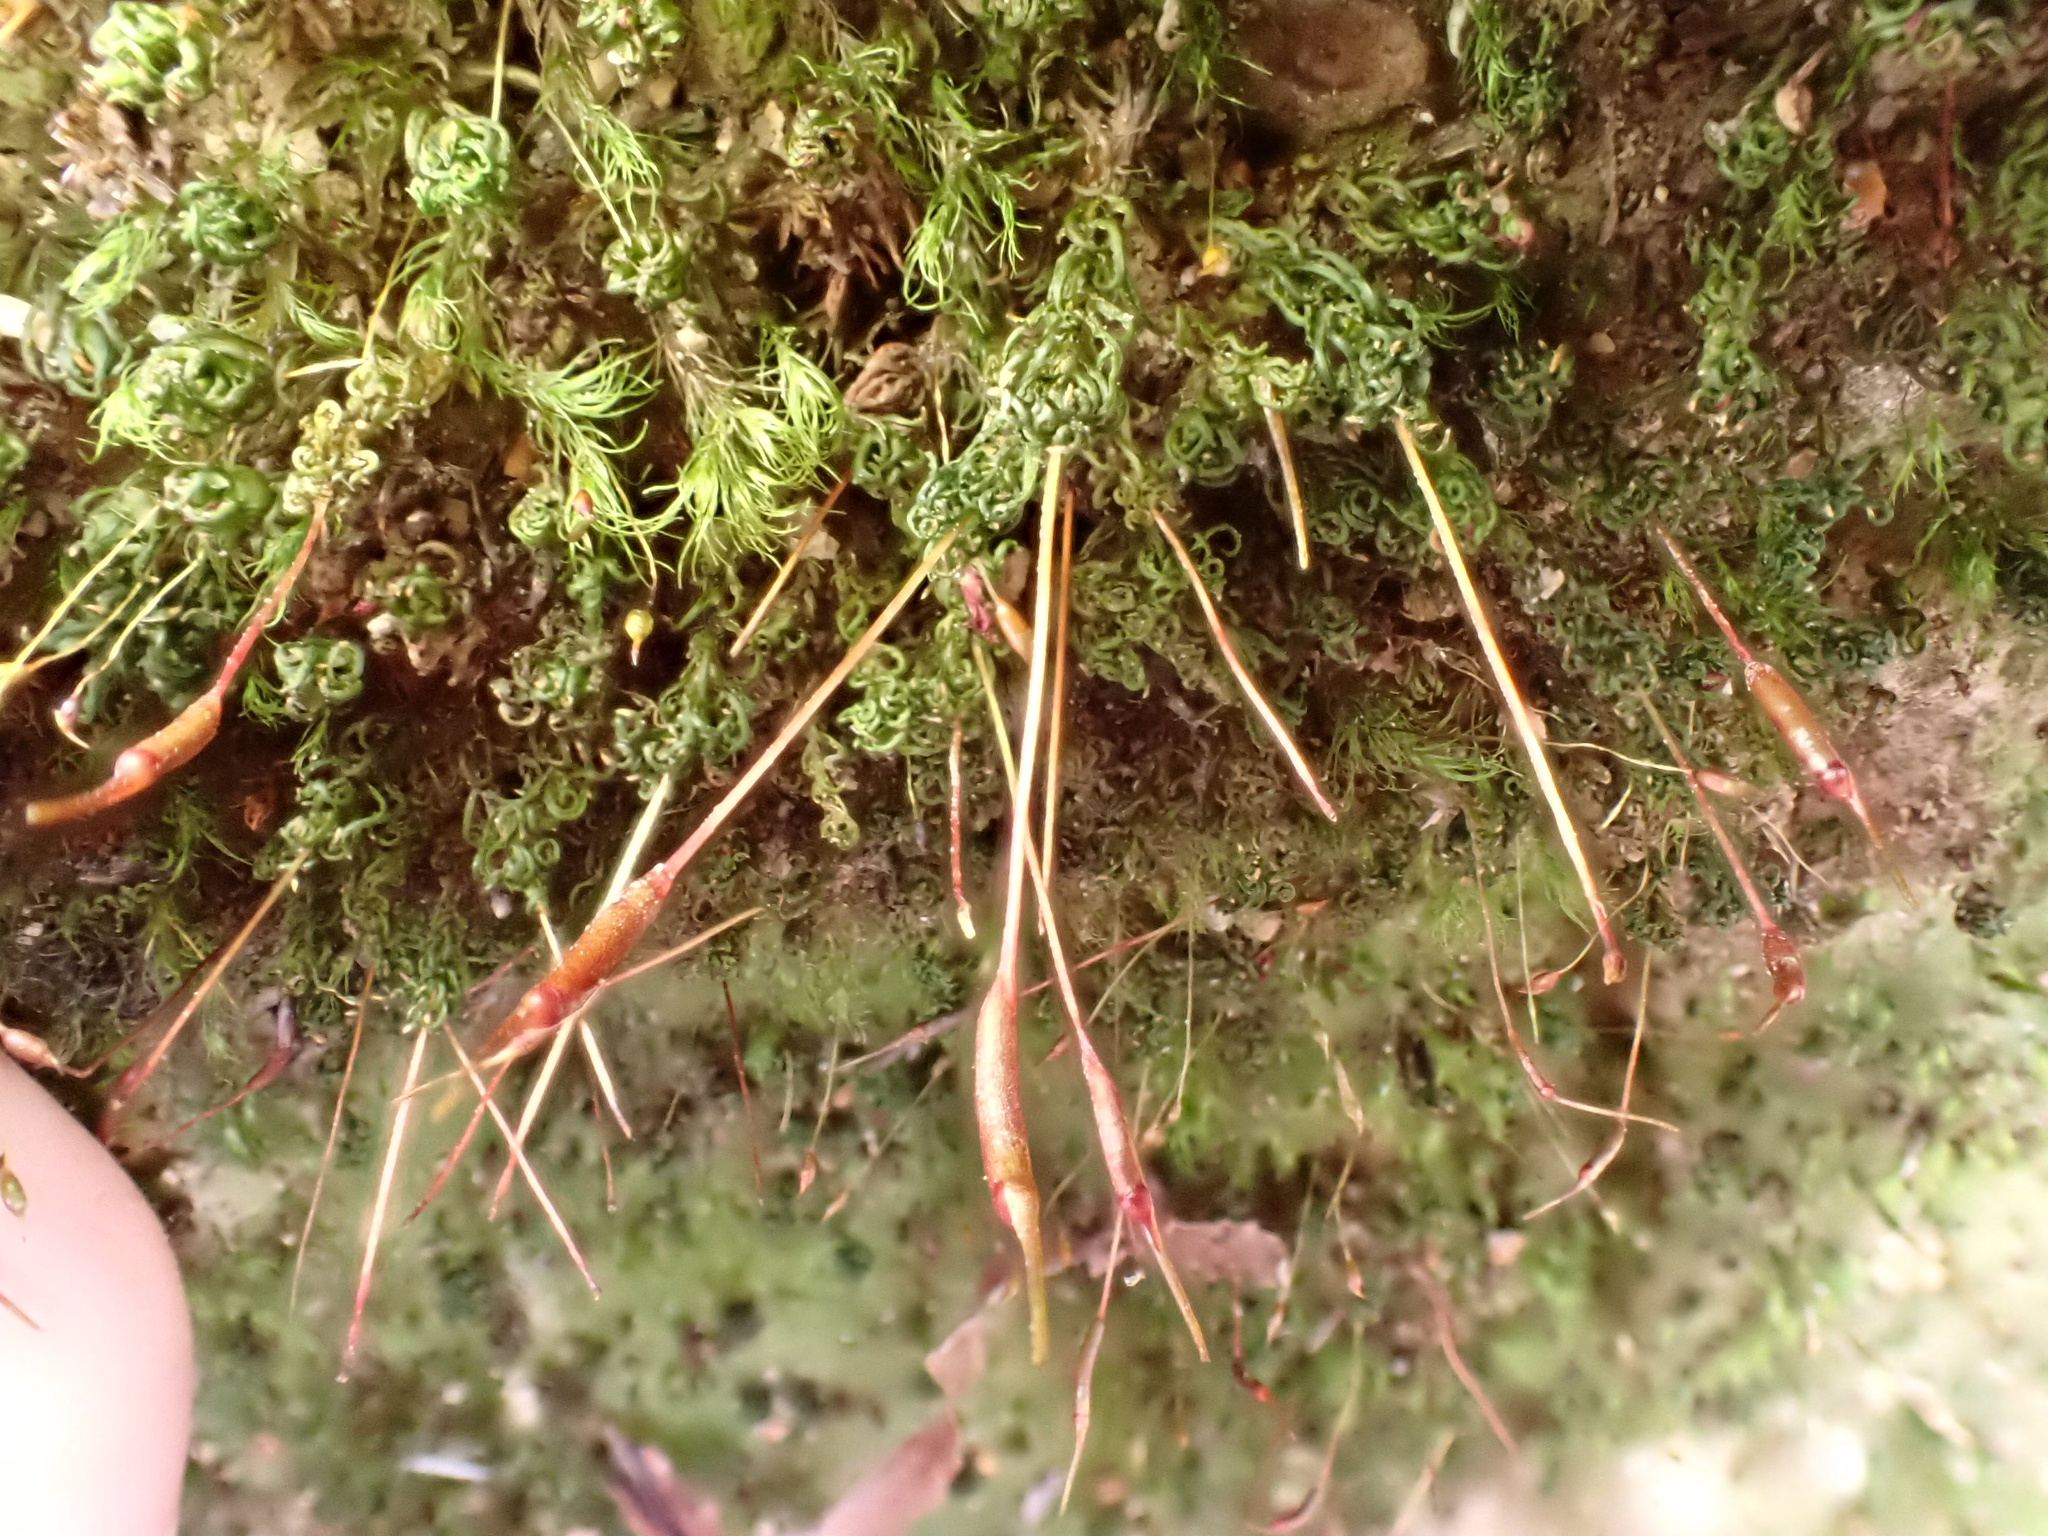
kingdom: Plantae
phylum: Bryophyta
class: Polytrichopsida
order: Polytrichales
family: Polytrichaceae
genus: Atrichum
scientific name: Atrichum angustatum
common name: Lesser smoothcap
